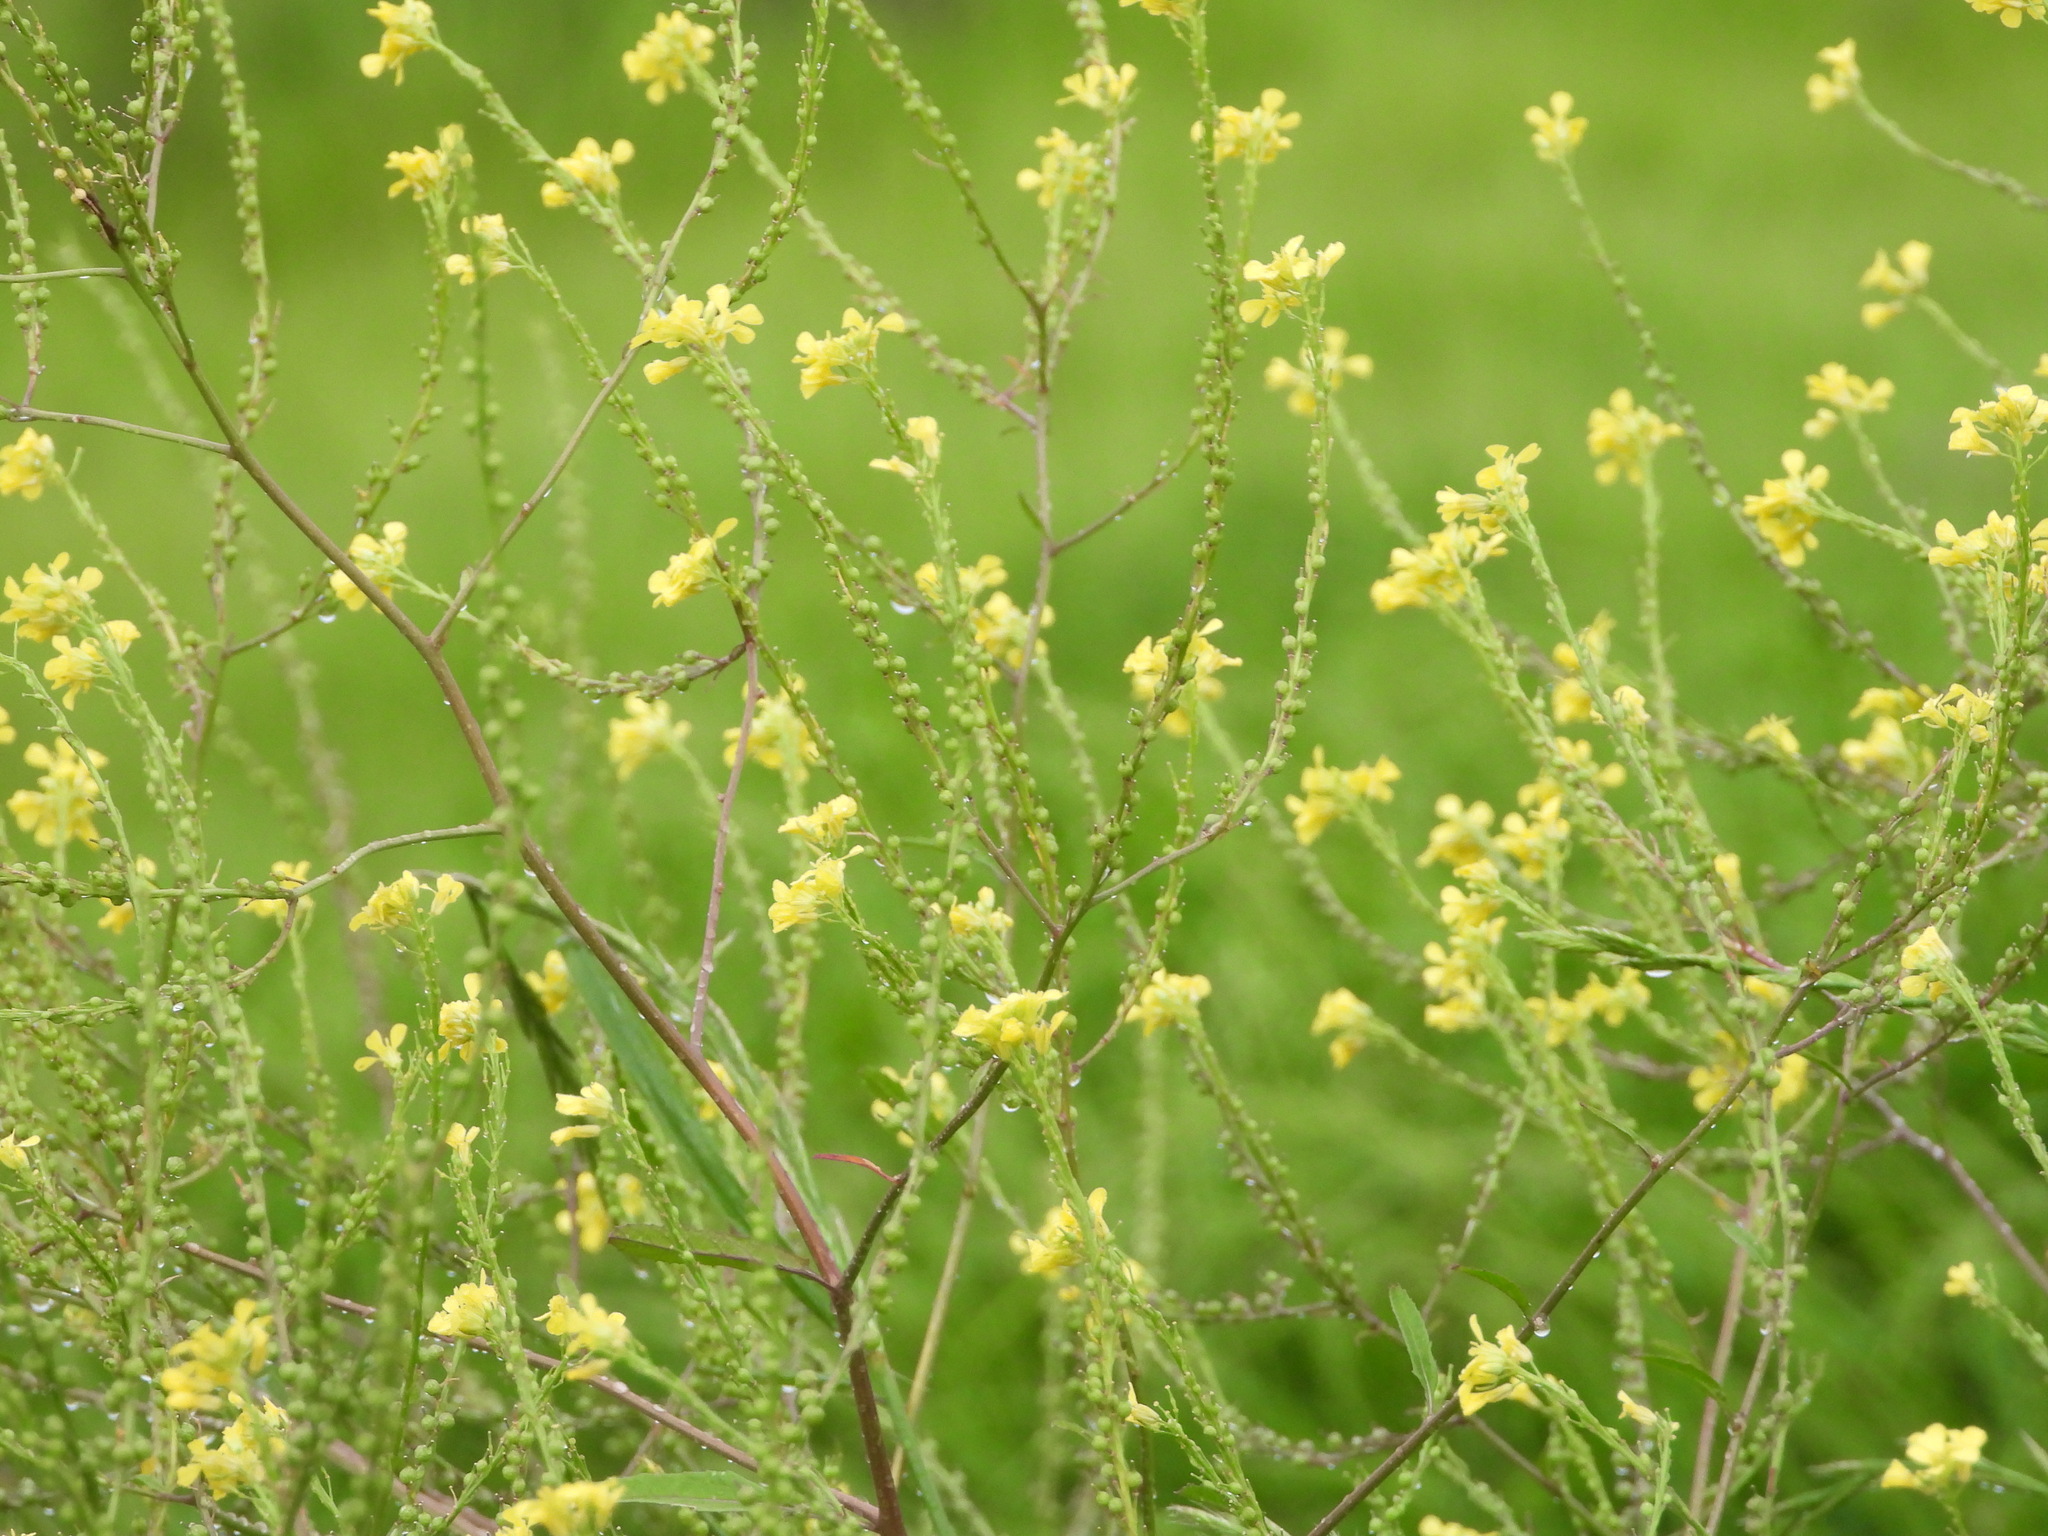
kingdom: Plantae
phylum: Tracheophyta
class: Magnoliopsida
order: Brassicales
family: Brassicaceae
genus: Rapistrum
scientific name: Rapistrum rugosum
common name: Annual bastardcabbage
